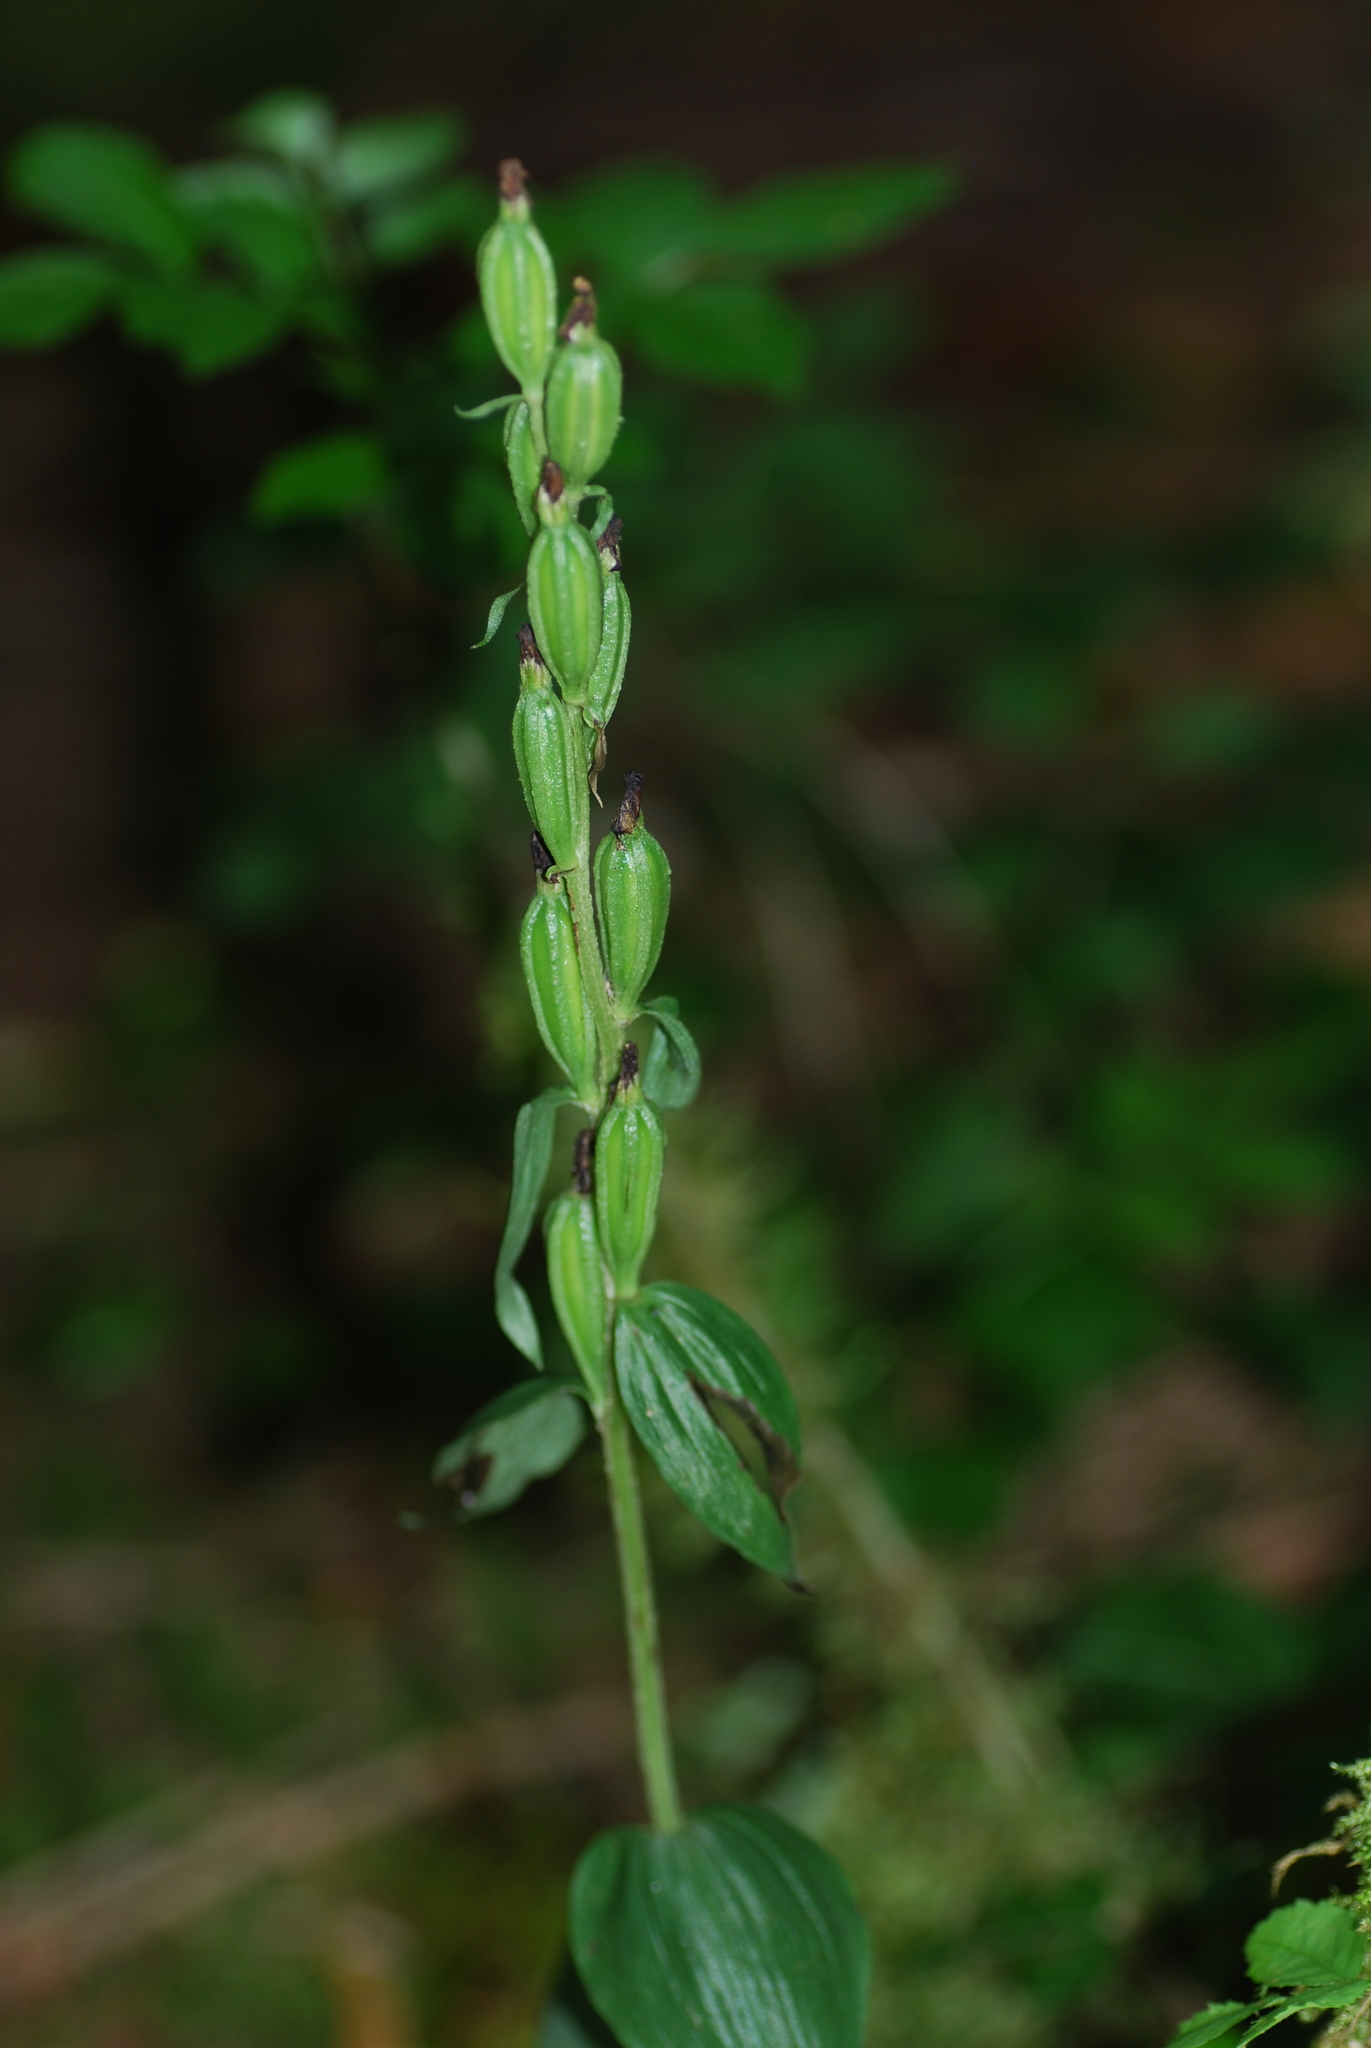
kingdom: Plantae
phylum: Tracheophyta
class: Liliopsida
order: Asparagales
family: Orchidaceae
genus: Cephalanthera
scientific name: Cephalanthera damasonium
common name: White helleborine
